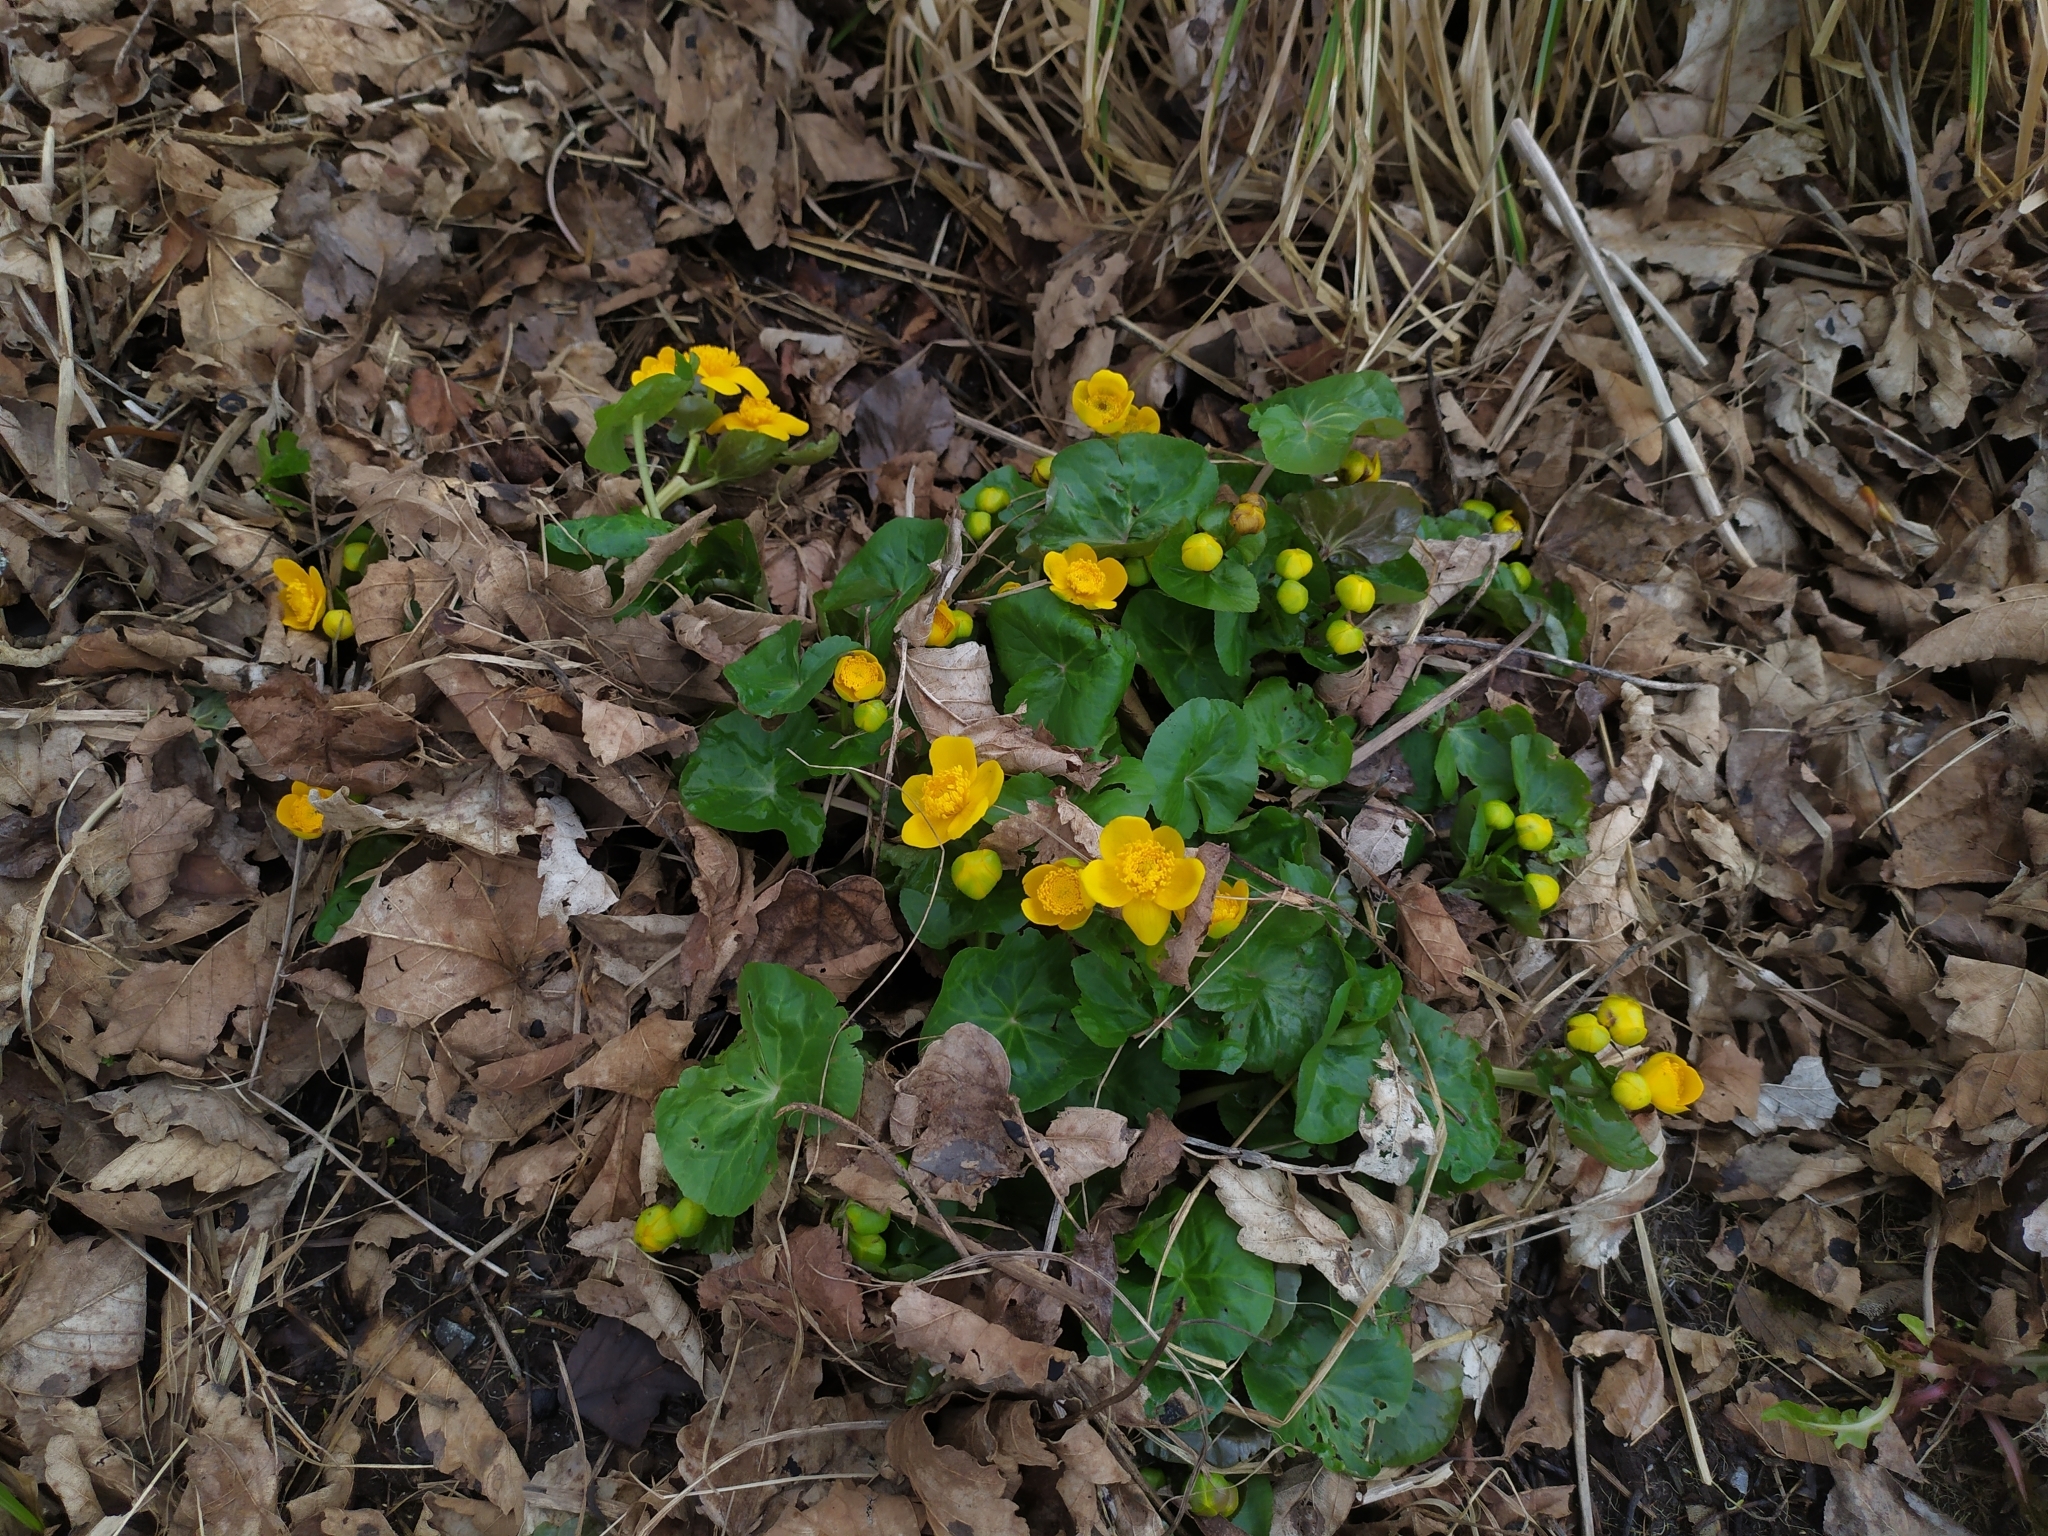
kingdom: Plantae
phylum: Tracheophyta
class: Magnoliopsida
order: Ranunculales
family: Ranunculaceae
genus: Caltha
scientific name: Caltha palustris
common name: Marsh marigold
